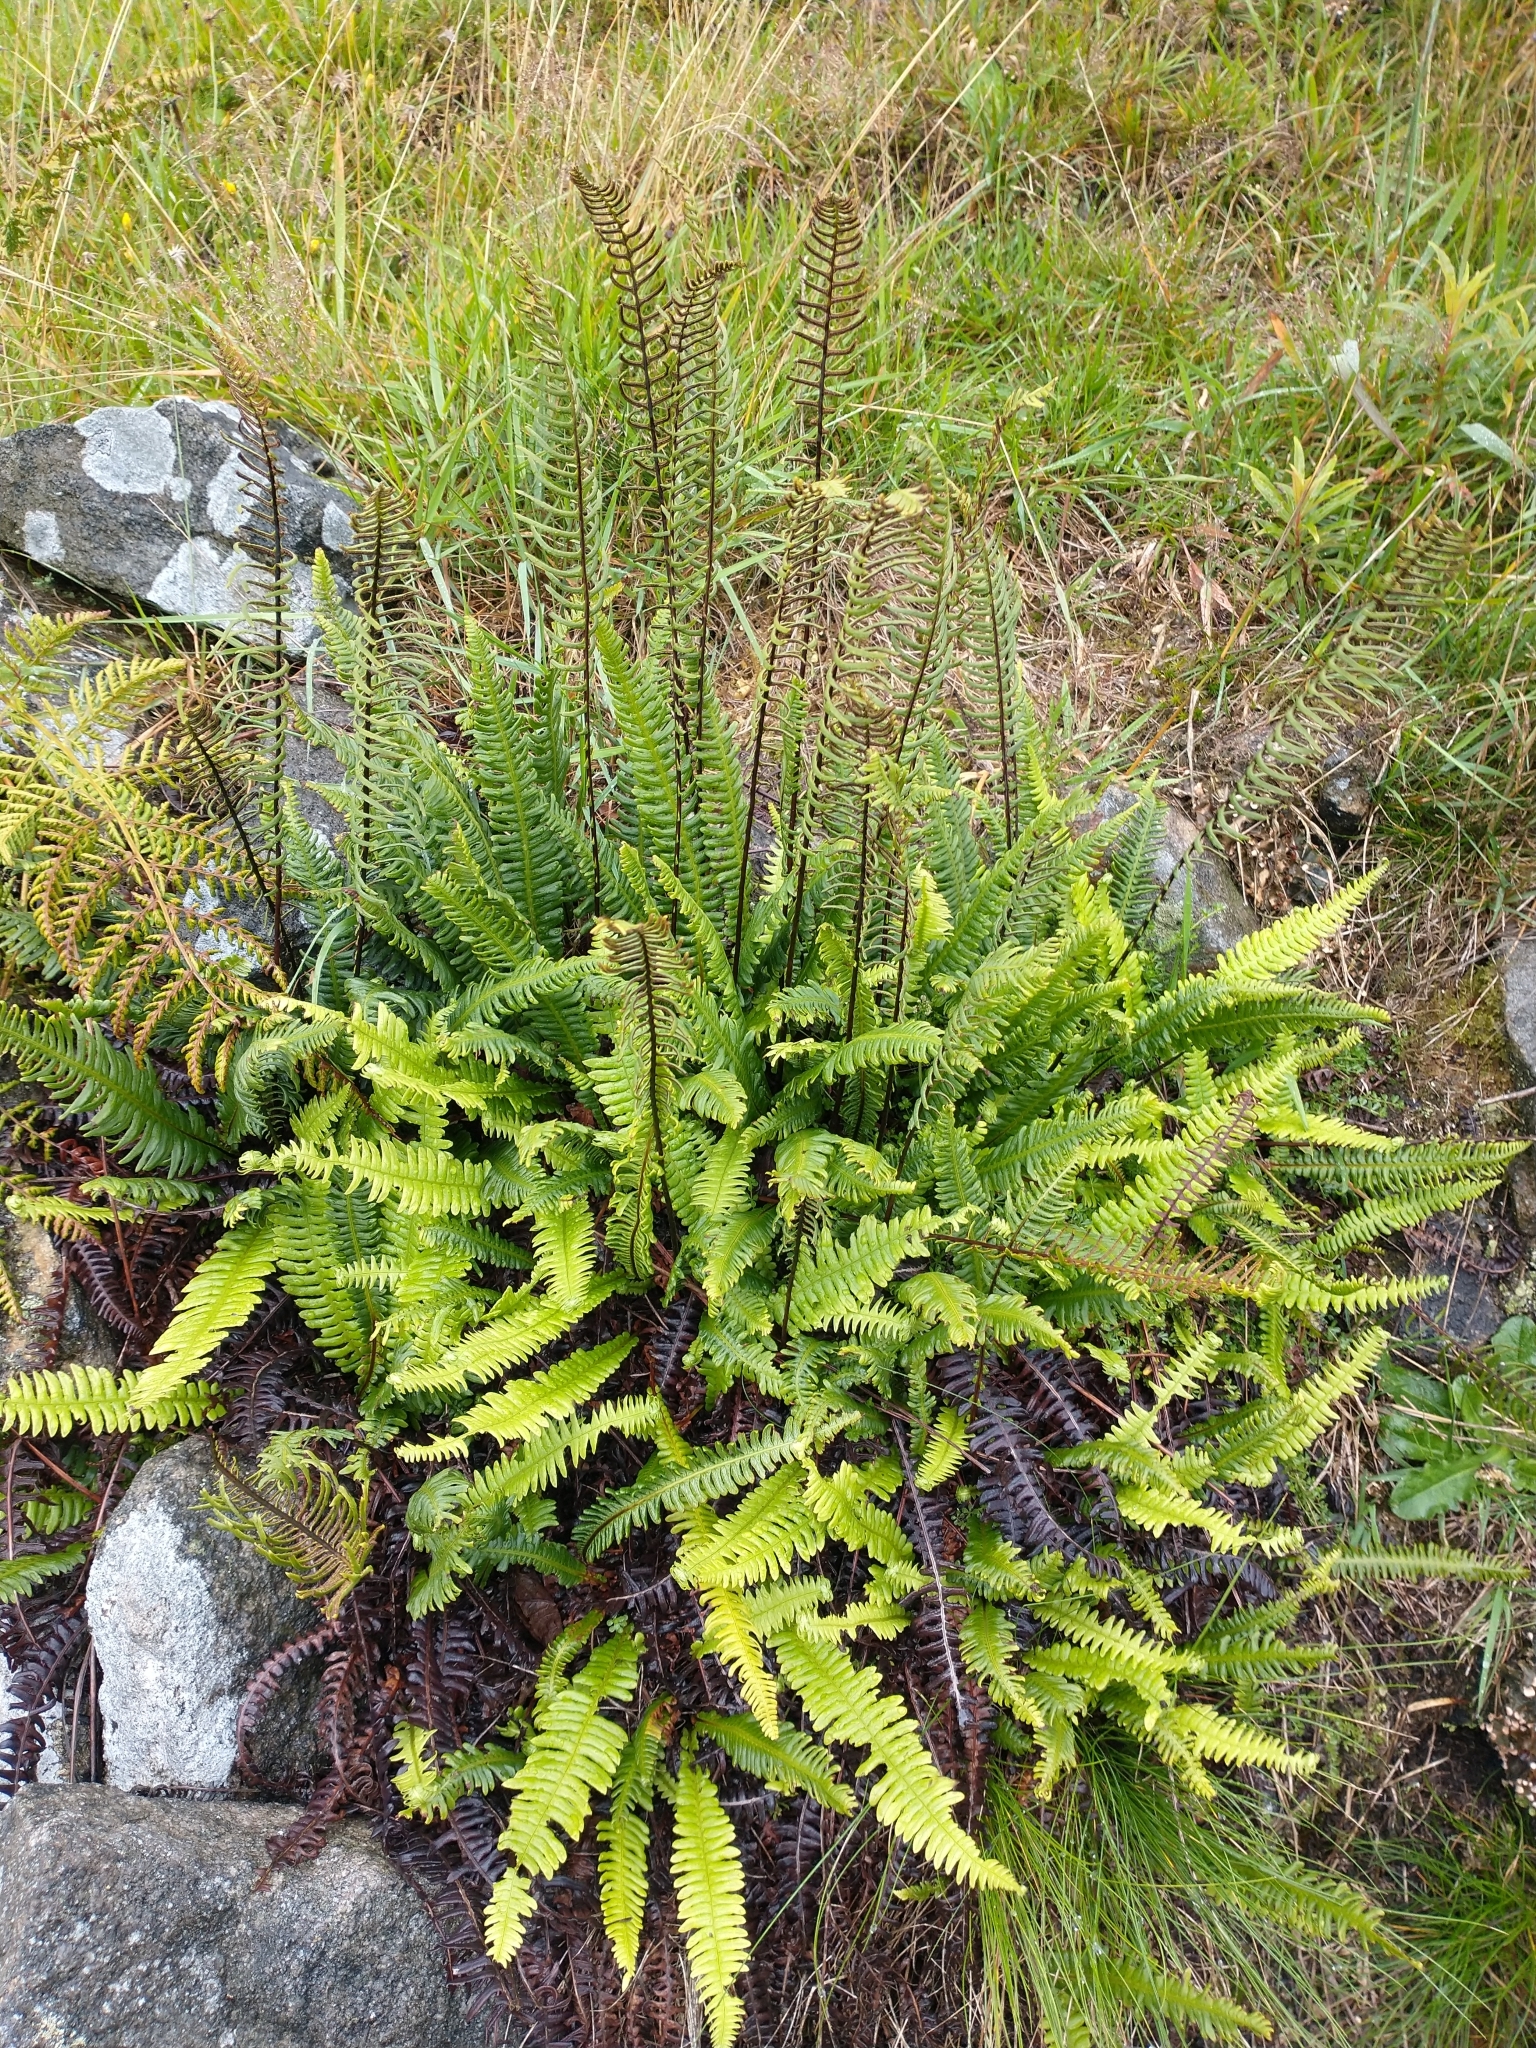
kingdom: Plantae
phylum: Tracheophyta
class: Polypodiopsida
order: Polypodiales
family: Blechnaceae
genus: Struthiopteris
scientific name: Struthiopteris spicant
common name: Deer fern
